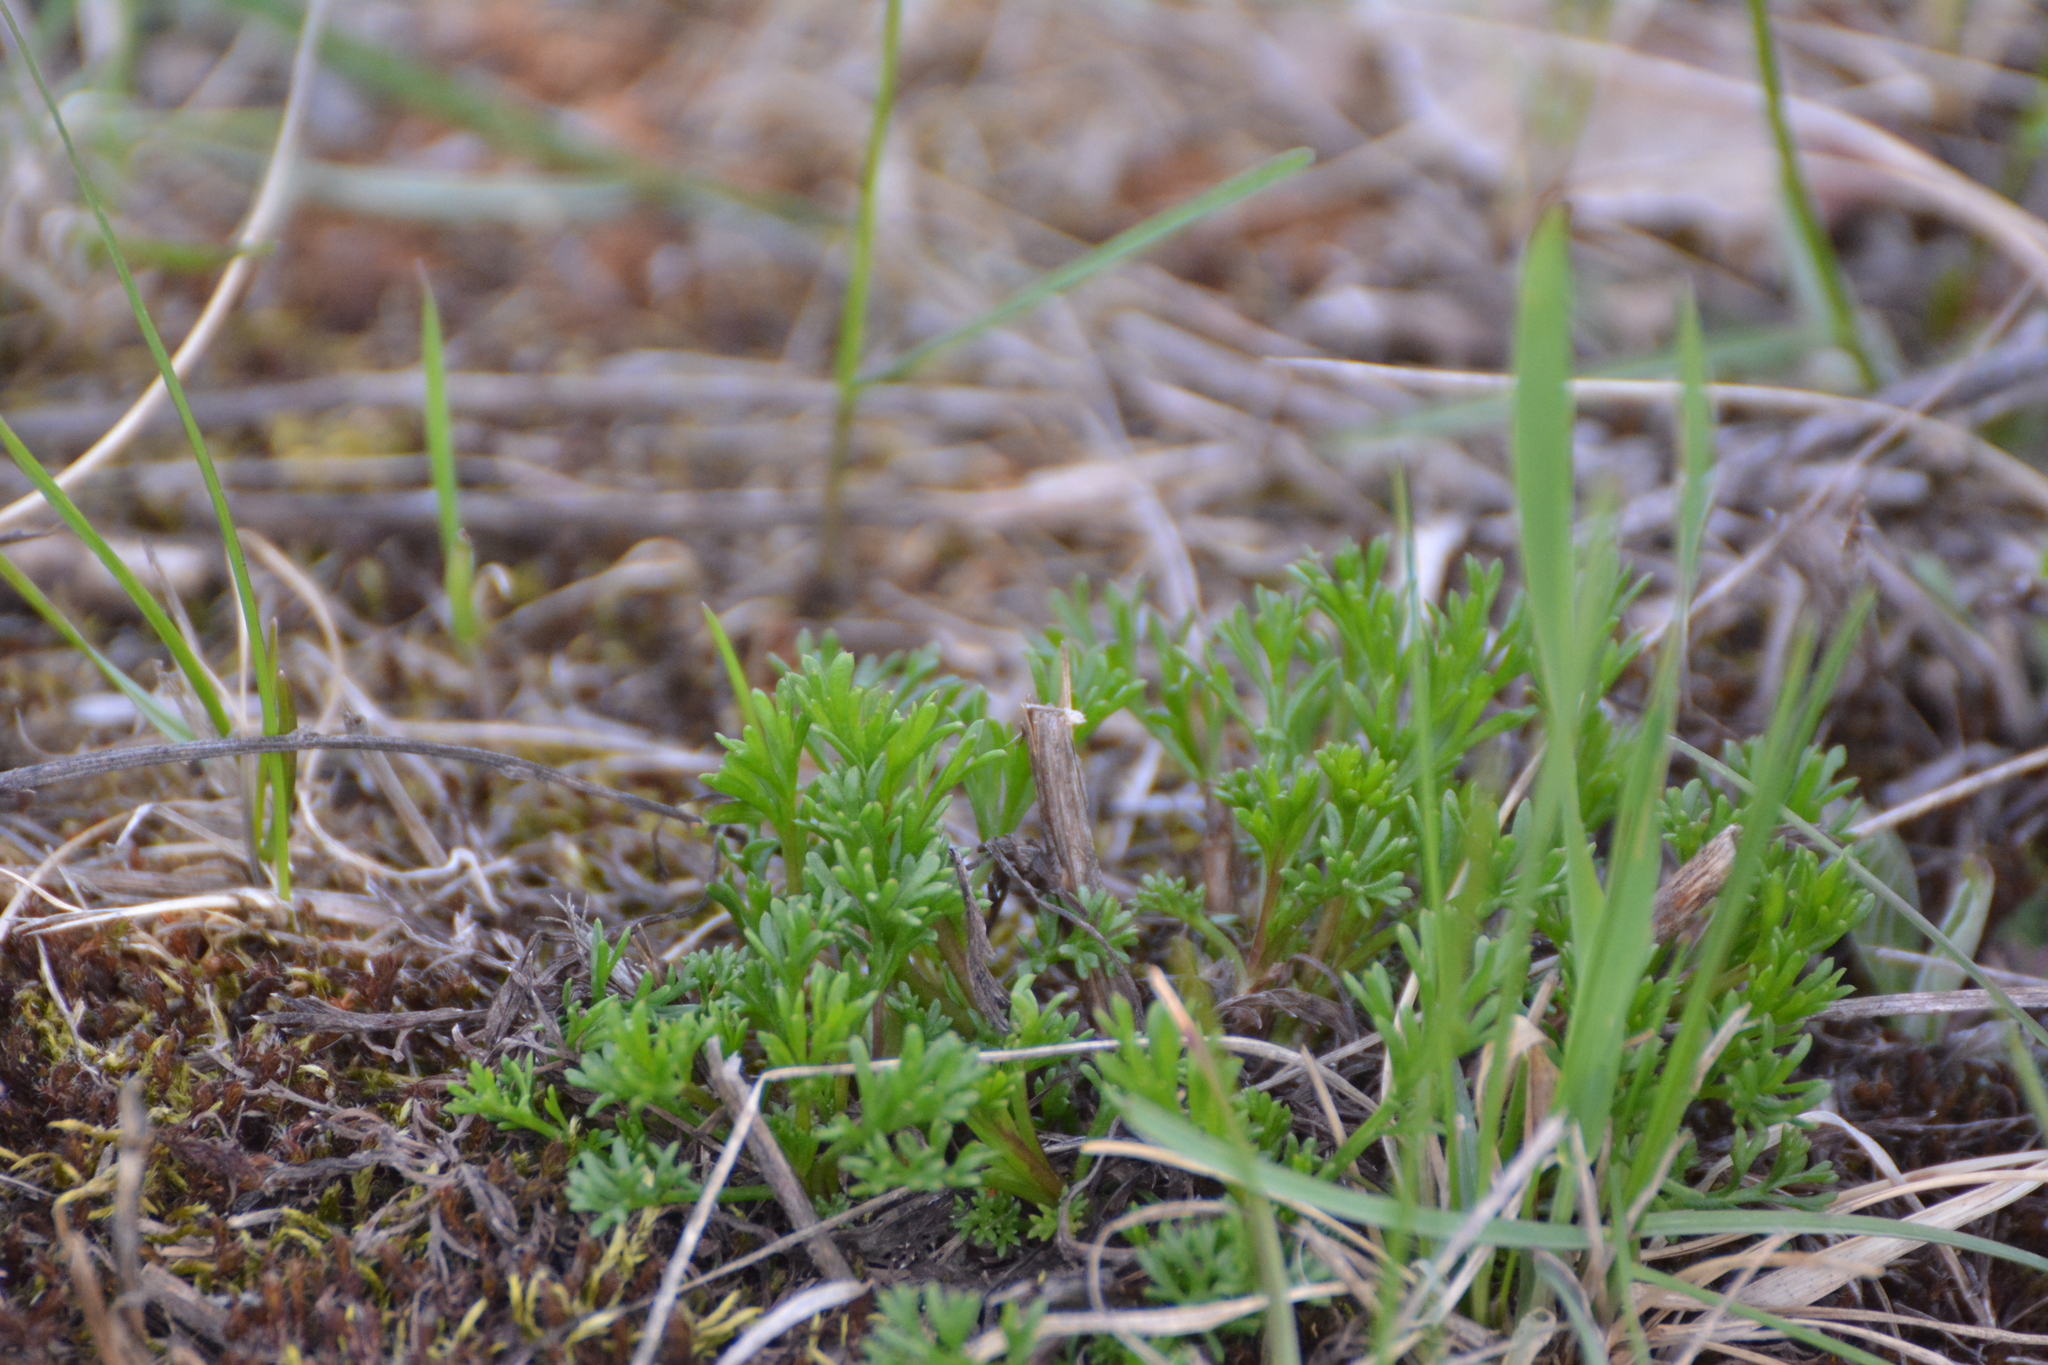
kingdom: Plantae
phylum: Tracheophyta
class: Magnoliopsida
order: Asterales
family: Asteraceae
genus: Artemisia
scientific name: Artemisia campestris
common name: Field wormwood
